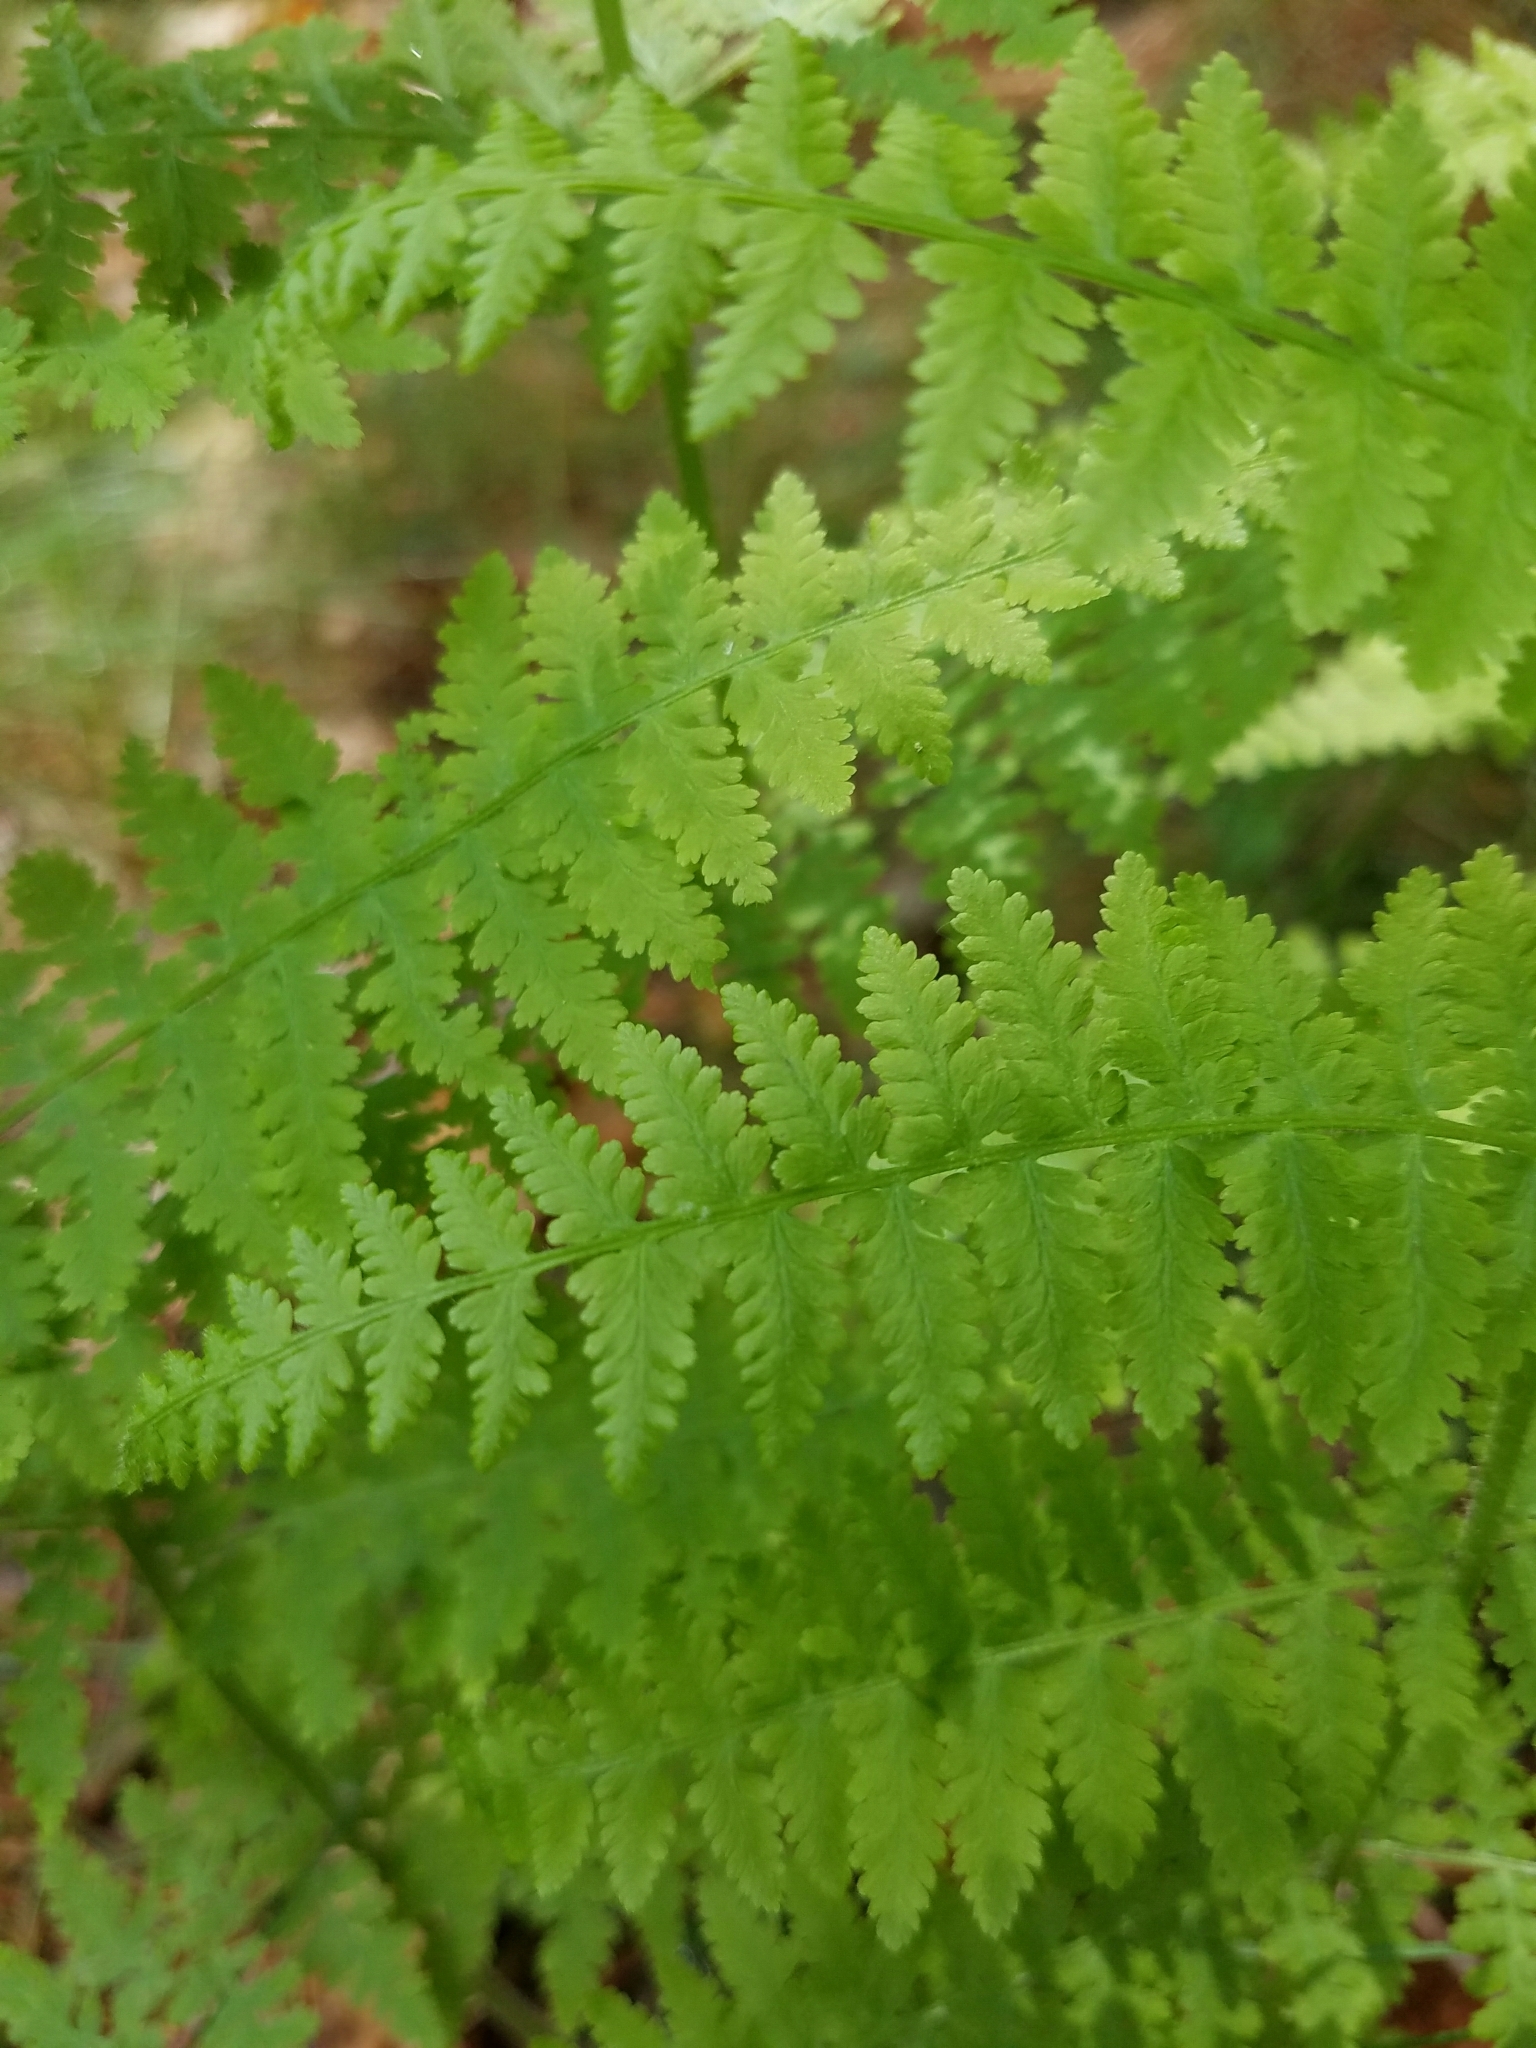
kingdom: Plantae
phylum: Tracheophyta
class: Polypodiopsida
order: Polypodiales
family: Dennstaedtiaceae
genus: Sitobolium
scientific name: Sitobolium punctilobum
